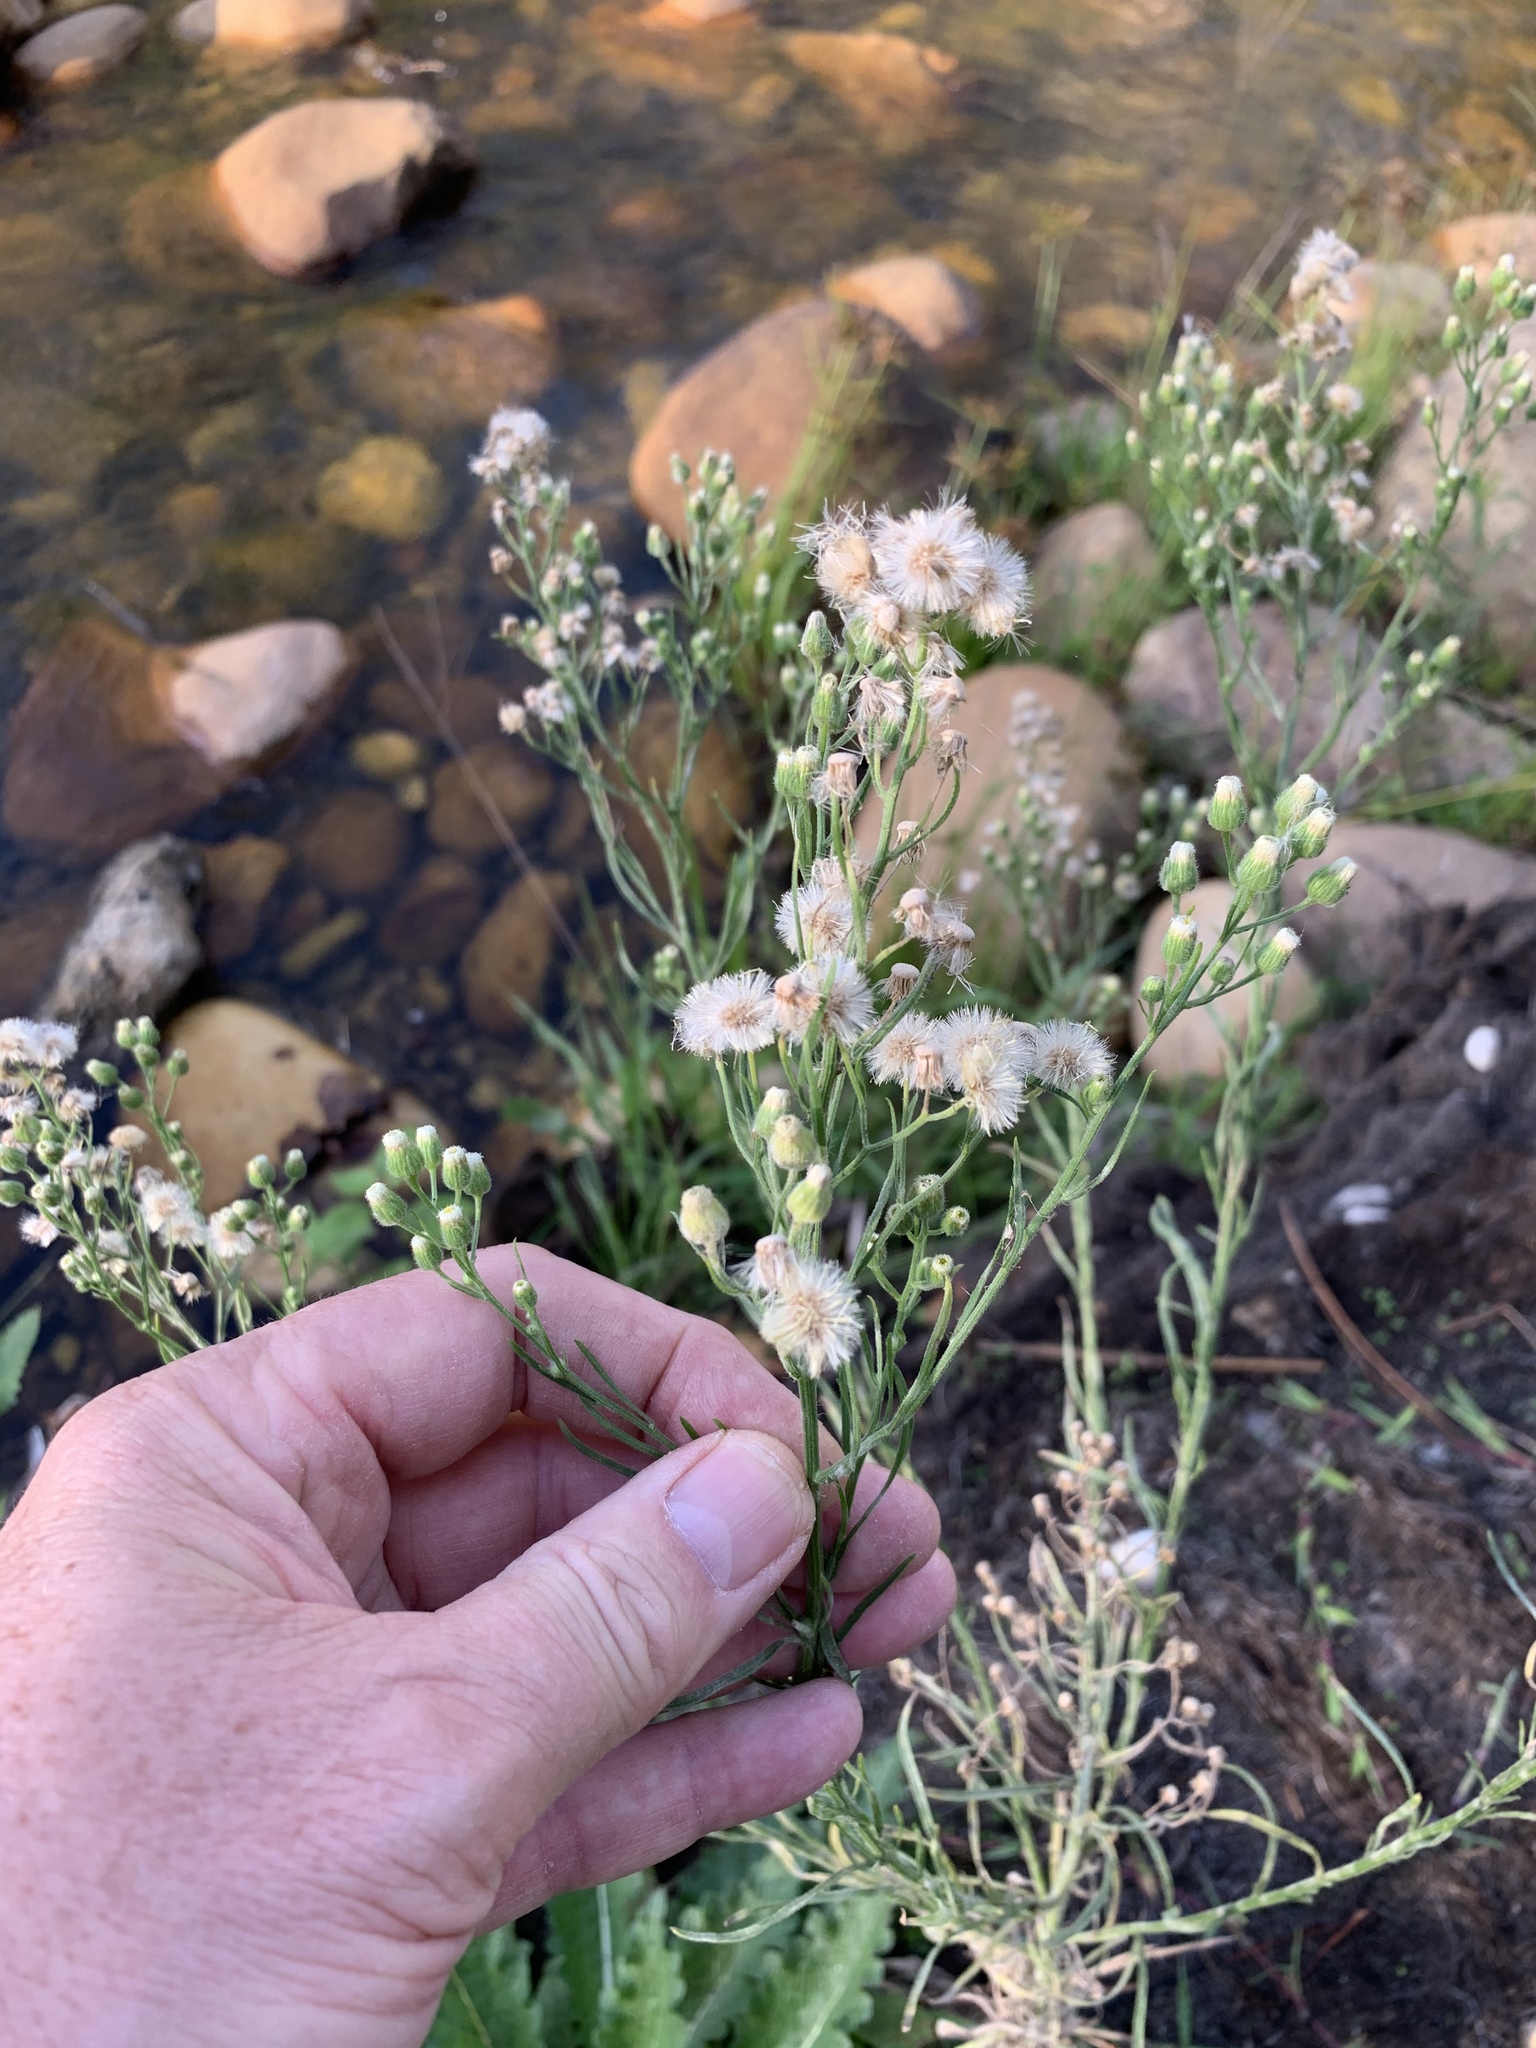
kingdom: Plantae
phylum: Tracheophyta
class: Magnoliopsida
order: Asterales
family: Asteraceae
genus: Erigeron
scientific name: Erigeron bonariensis
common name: Argentine fleabane
